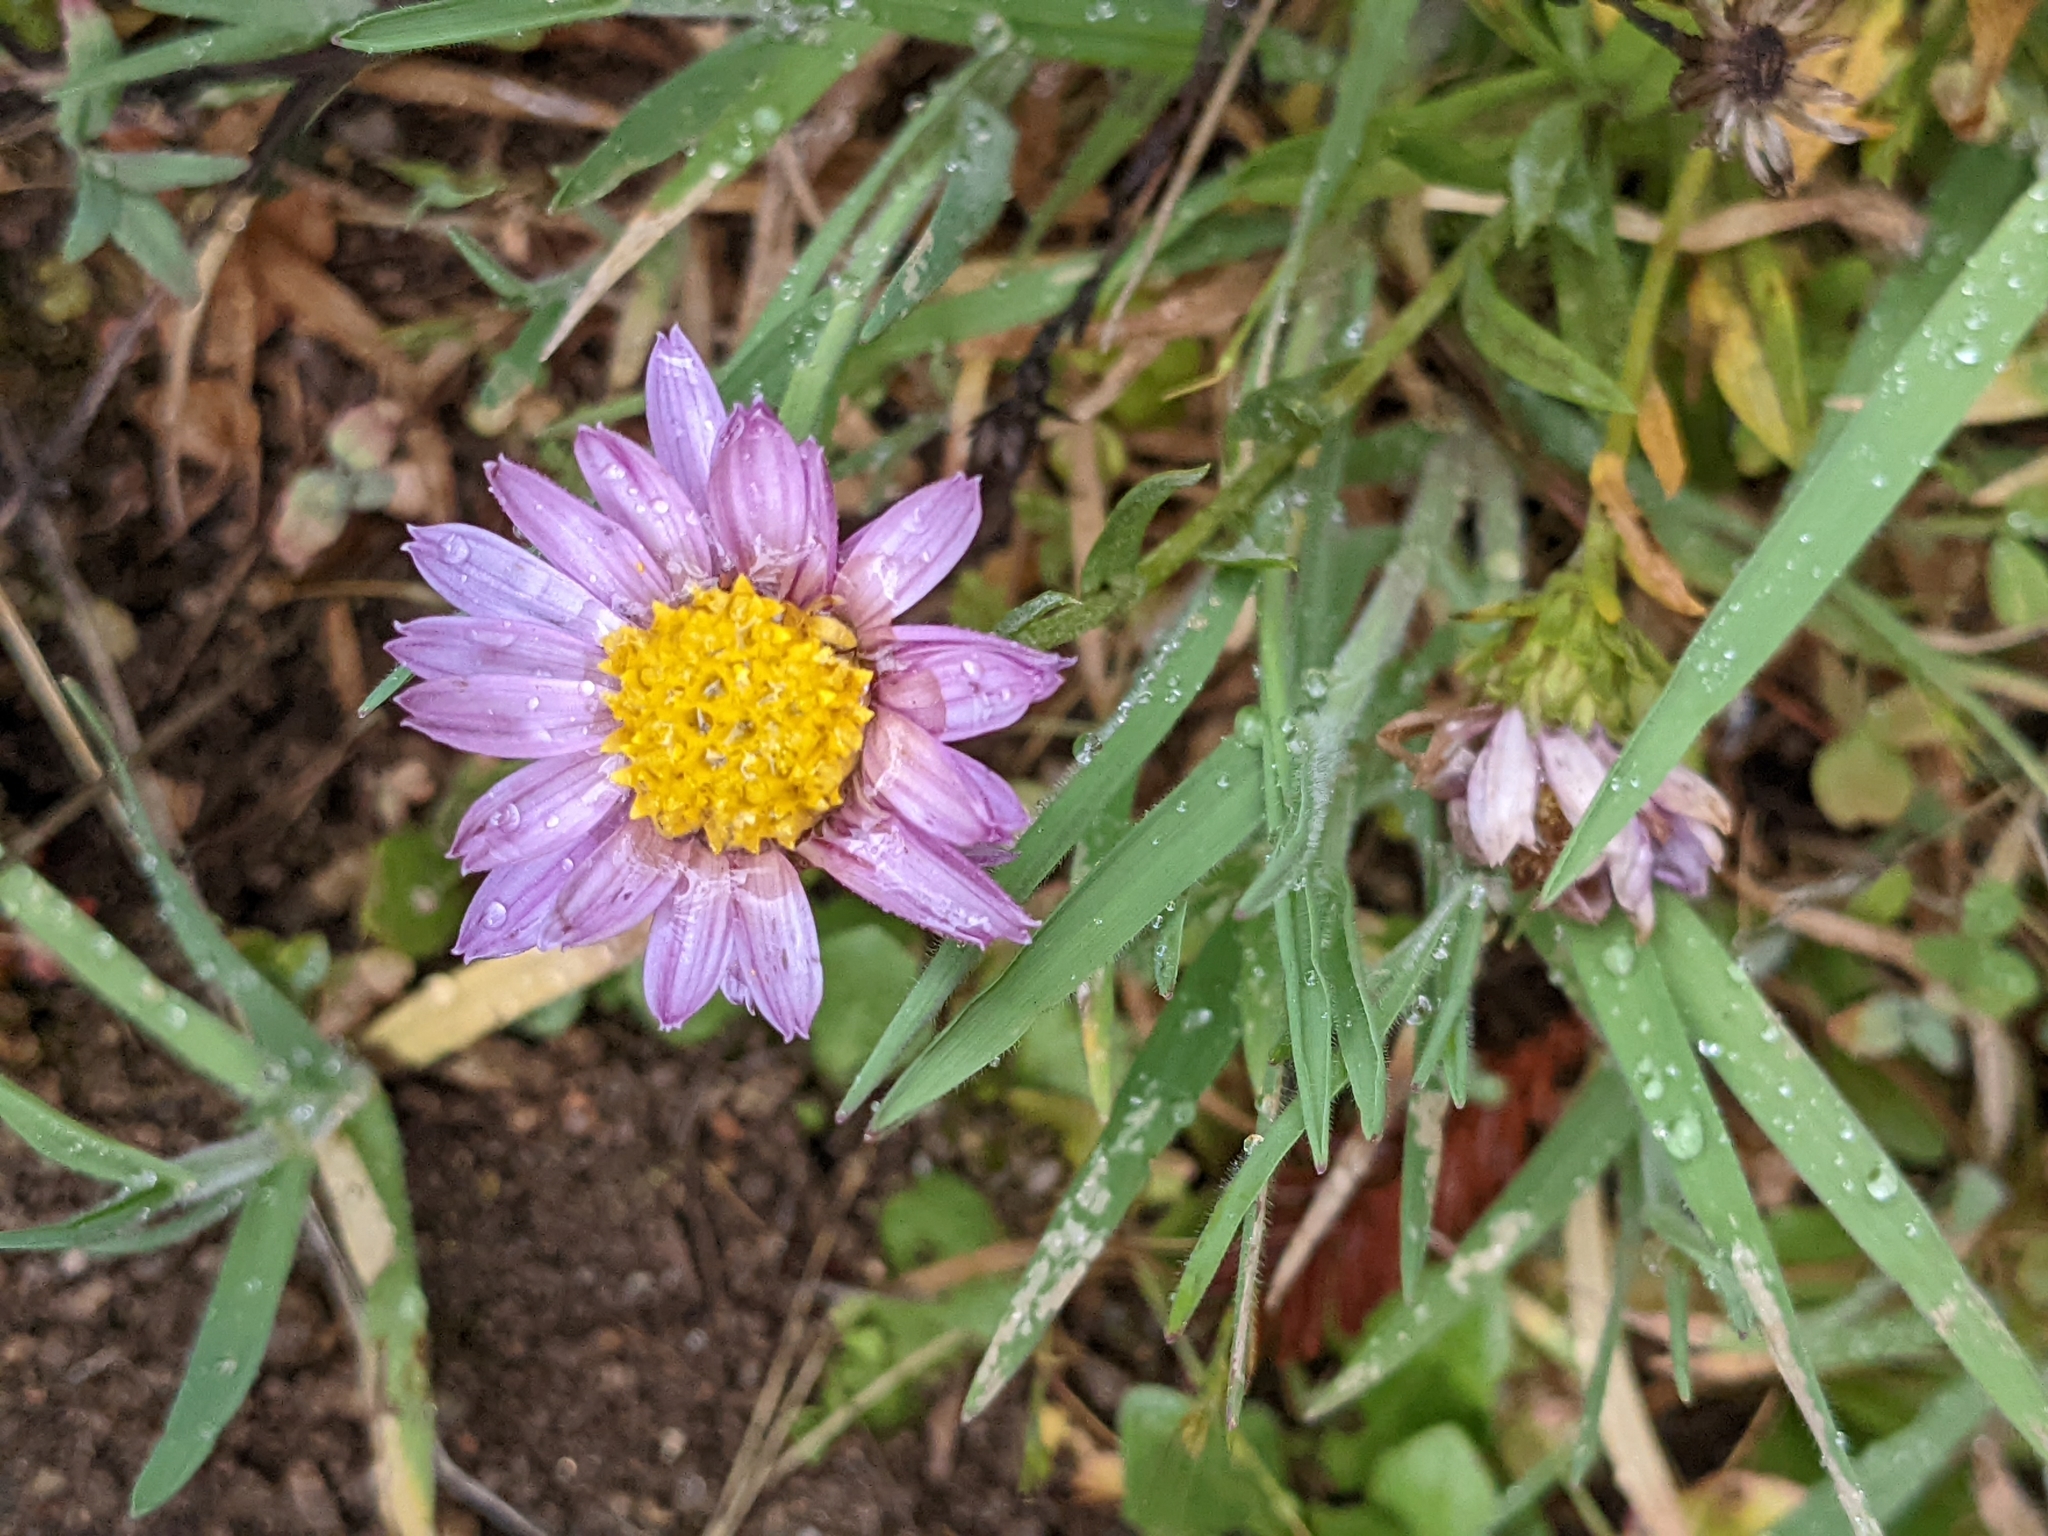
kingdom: Plantae
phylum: Tracheophyta
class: Magnoliopsida
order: Asterales
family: Asteraceae
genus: Corethrogyne
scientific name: Corethrogyne filaginifolia
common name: Sand-aster
